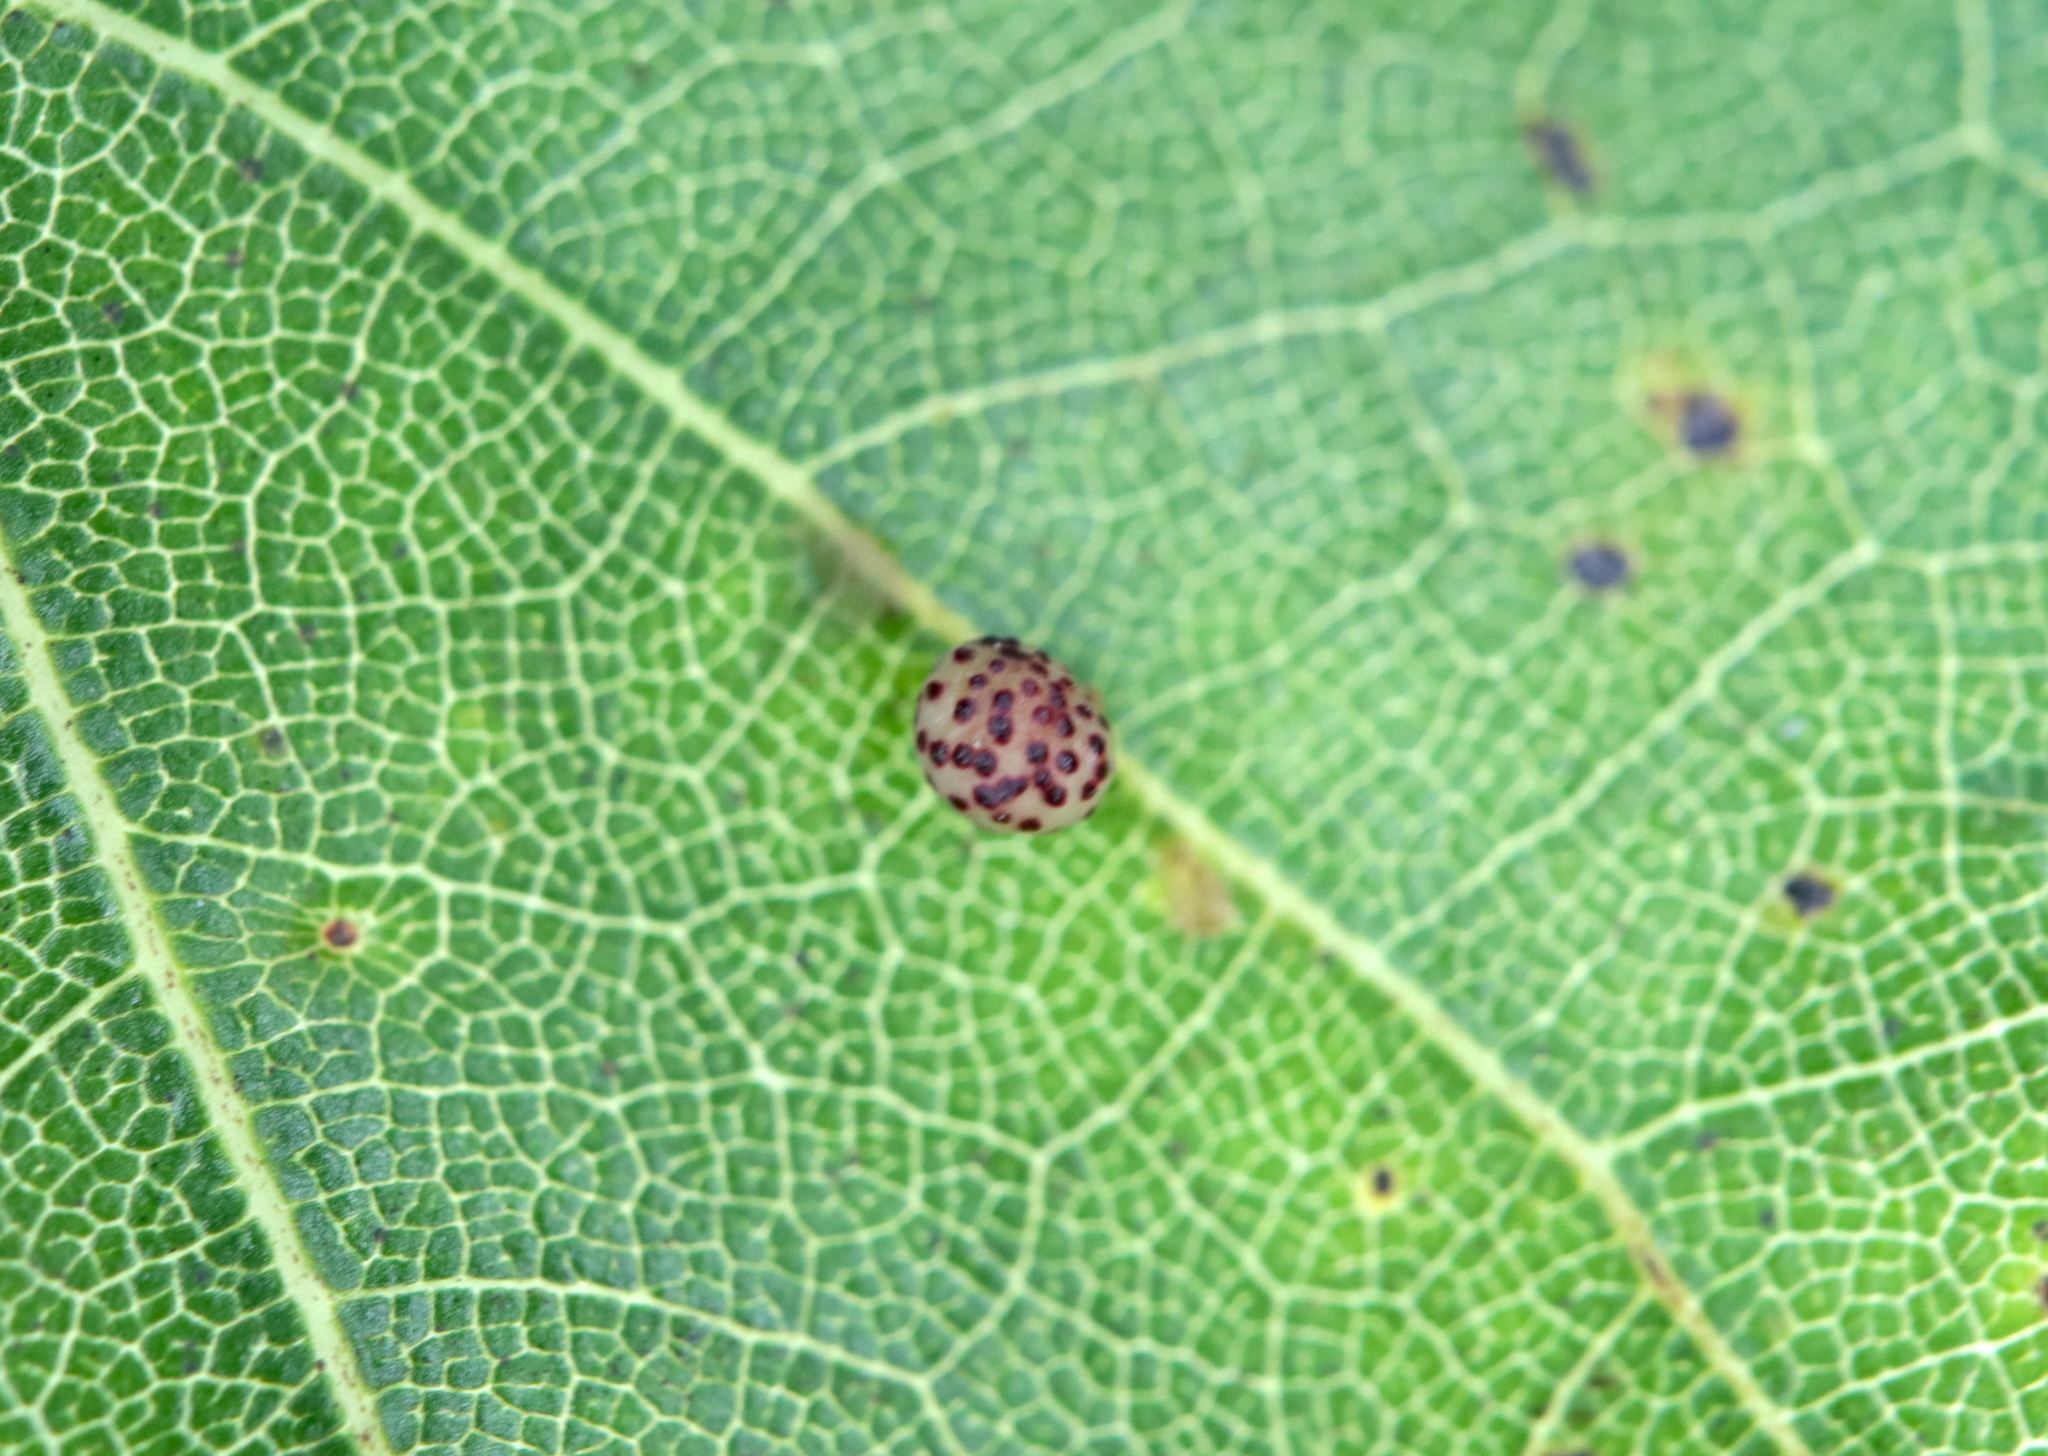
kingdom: Animalia
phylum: Arthropoda
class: Insecta
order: Hymenoptera
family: Cynipidae
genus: Zopheroteras
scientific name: Zopheroteras
